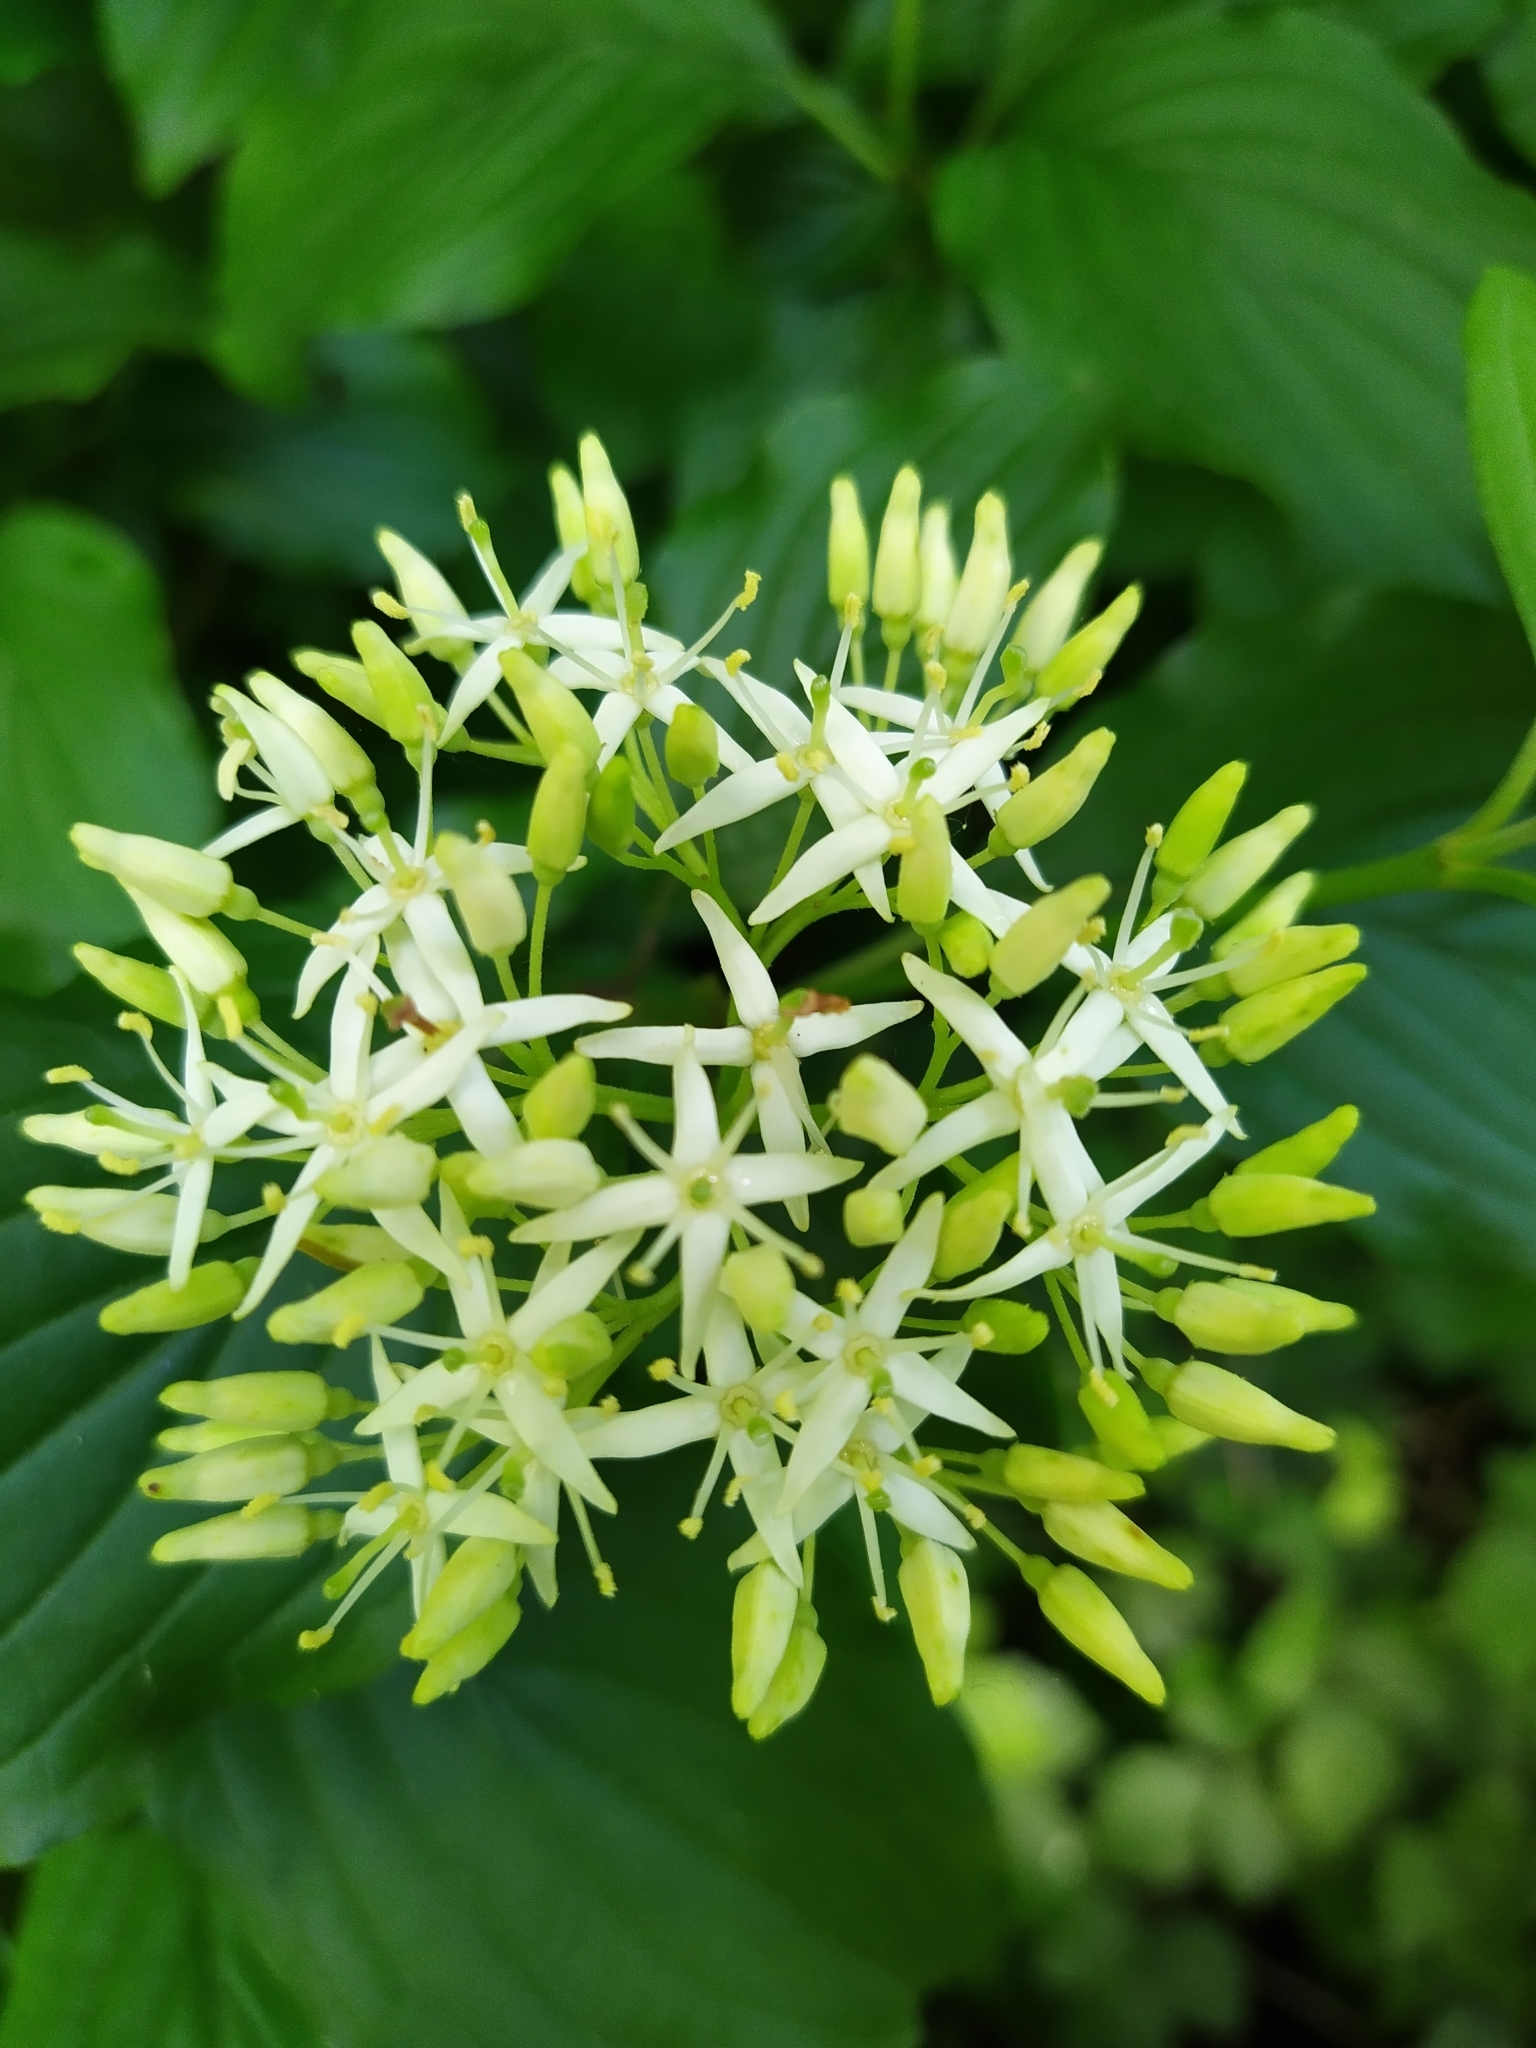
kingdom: Plantae
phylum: Tracheophyta
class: Magnoliopsida
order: Cornales
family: Cornaceae
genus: Cornus
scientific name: Cornus sanguinea
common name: Dogwood
